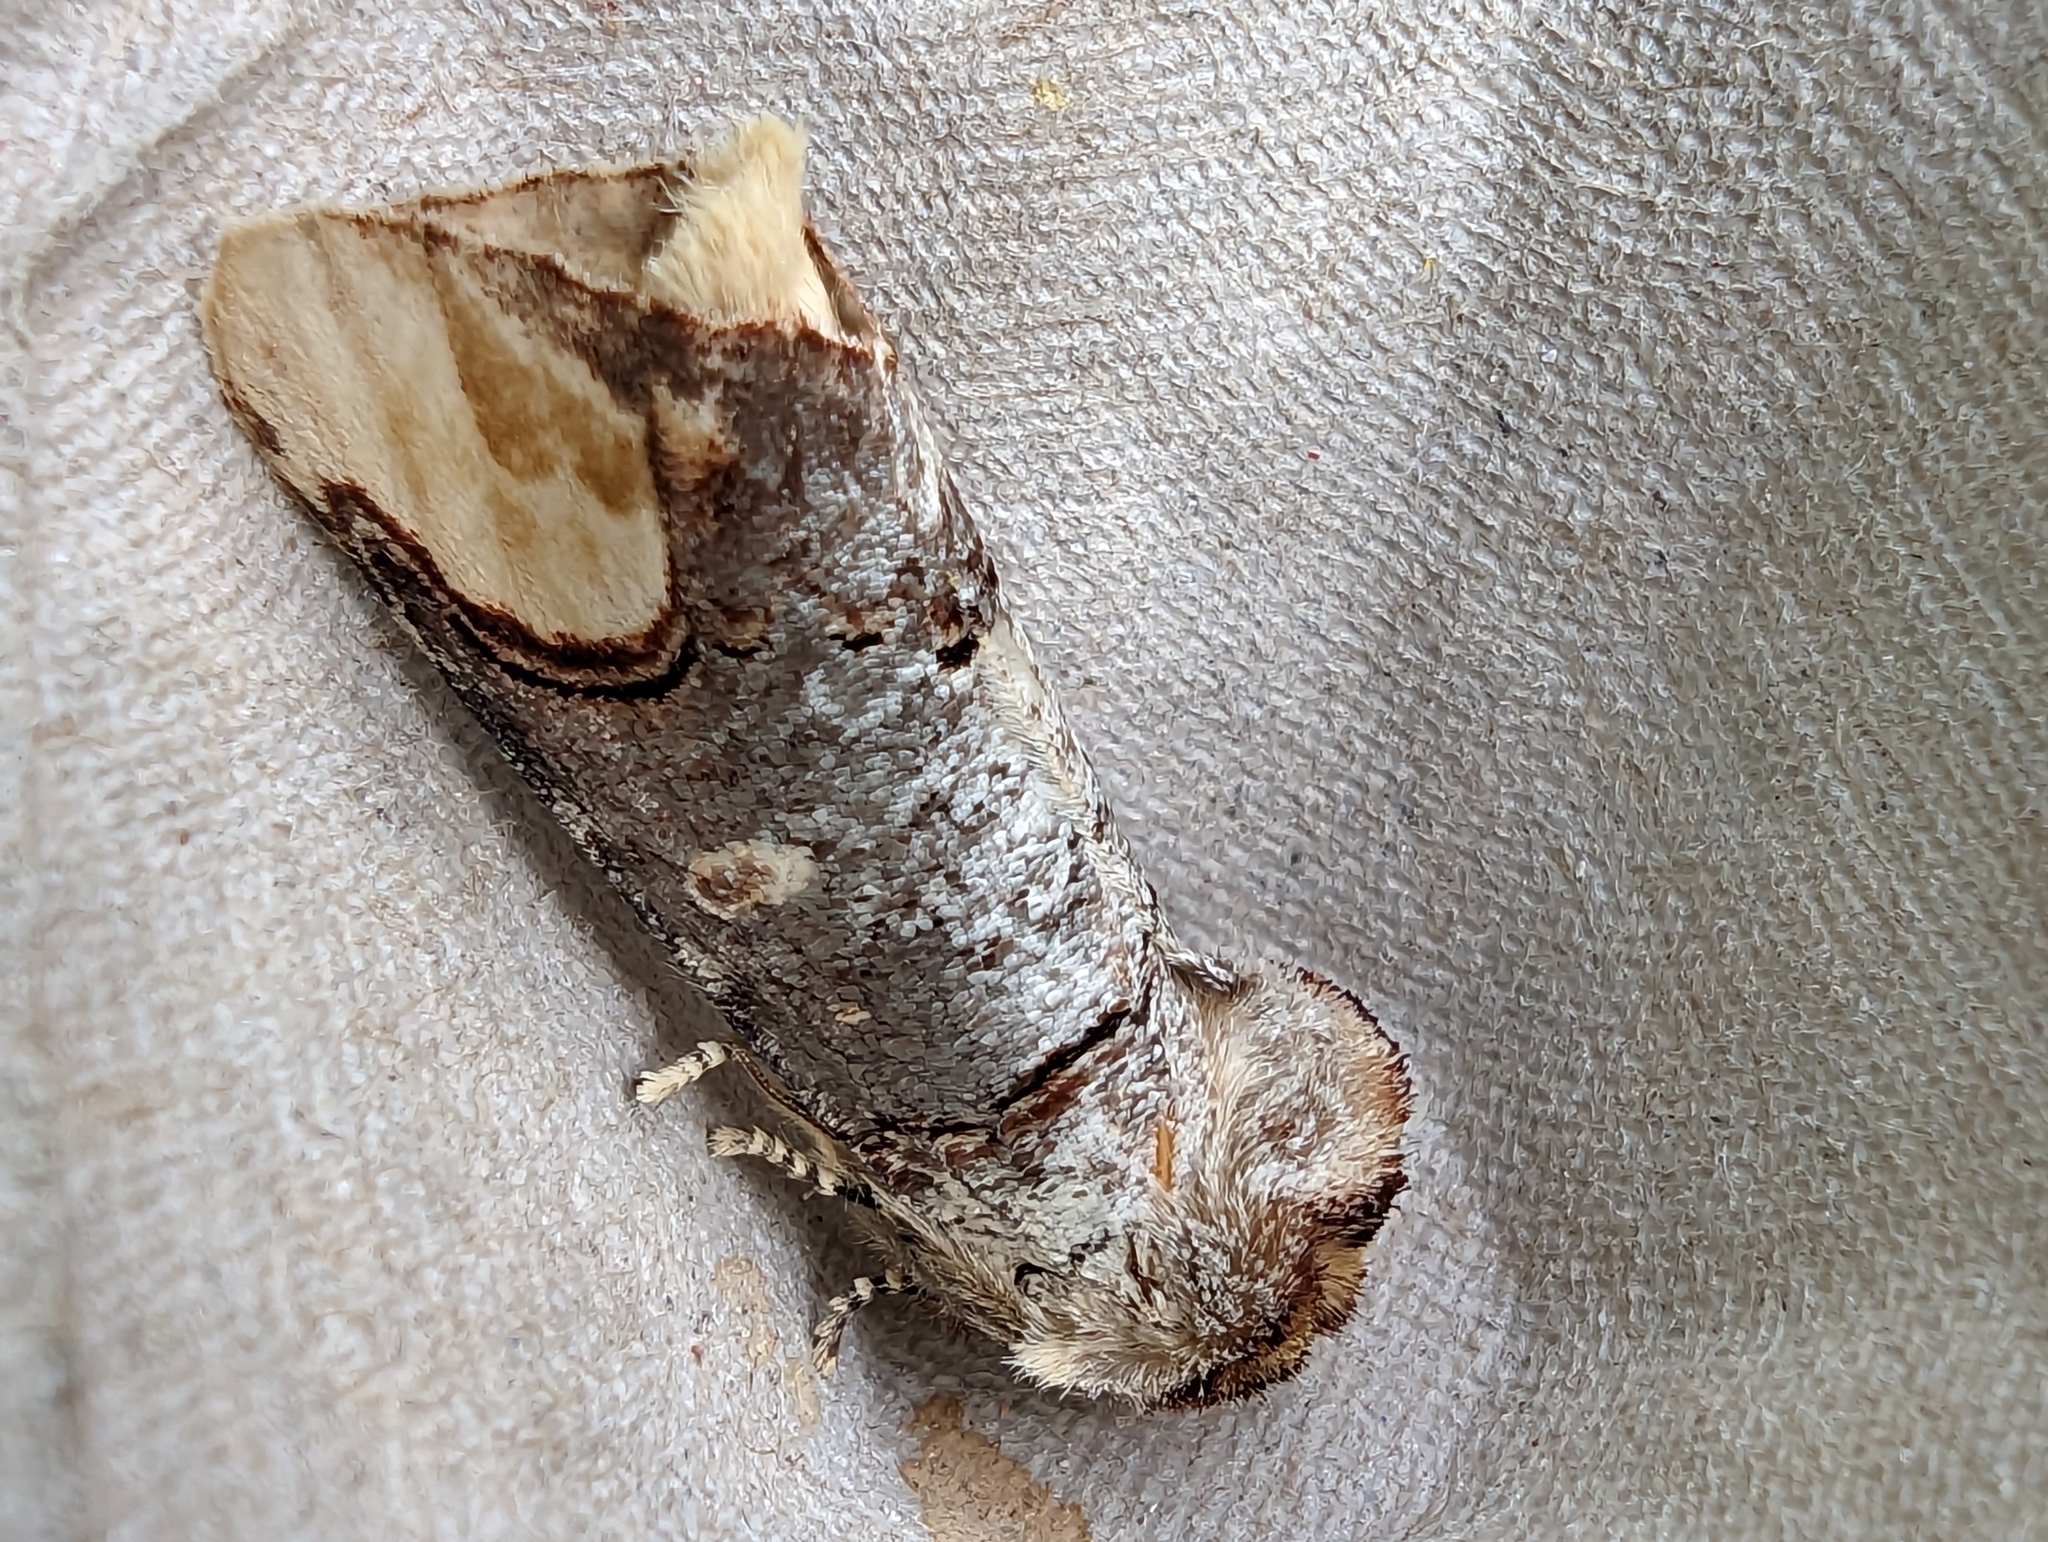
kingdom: Animalia
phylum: Arthropoda
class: Insecta
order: Lepidoptera
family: Notodontidae
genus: Phalera
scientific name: Phalera bucephala
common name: Buff-tip
